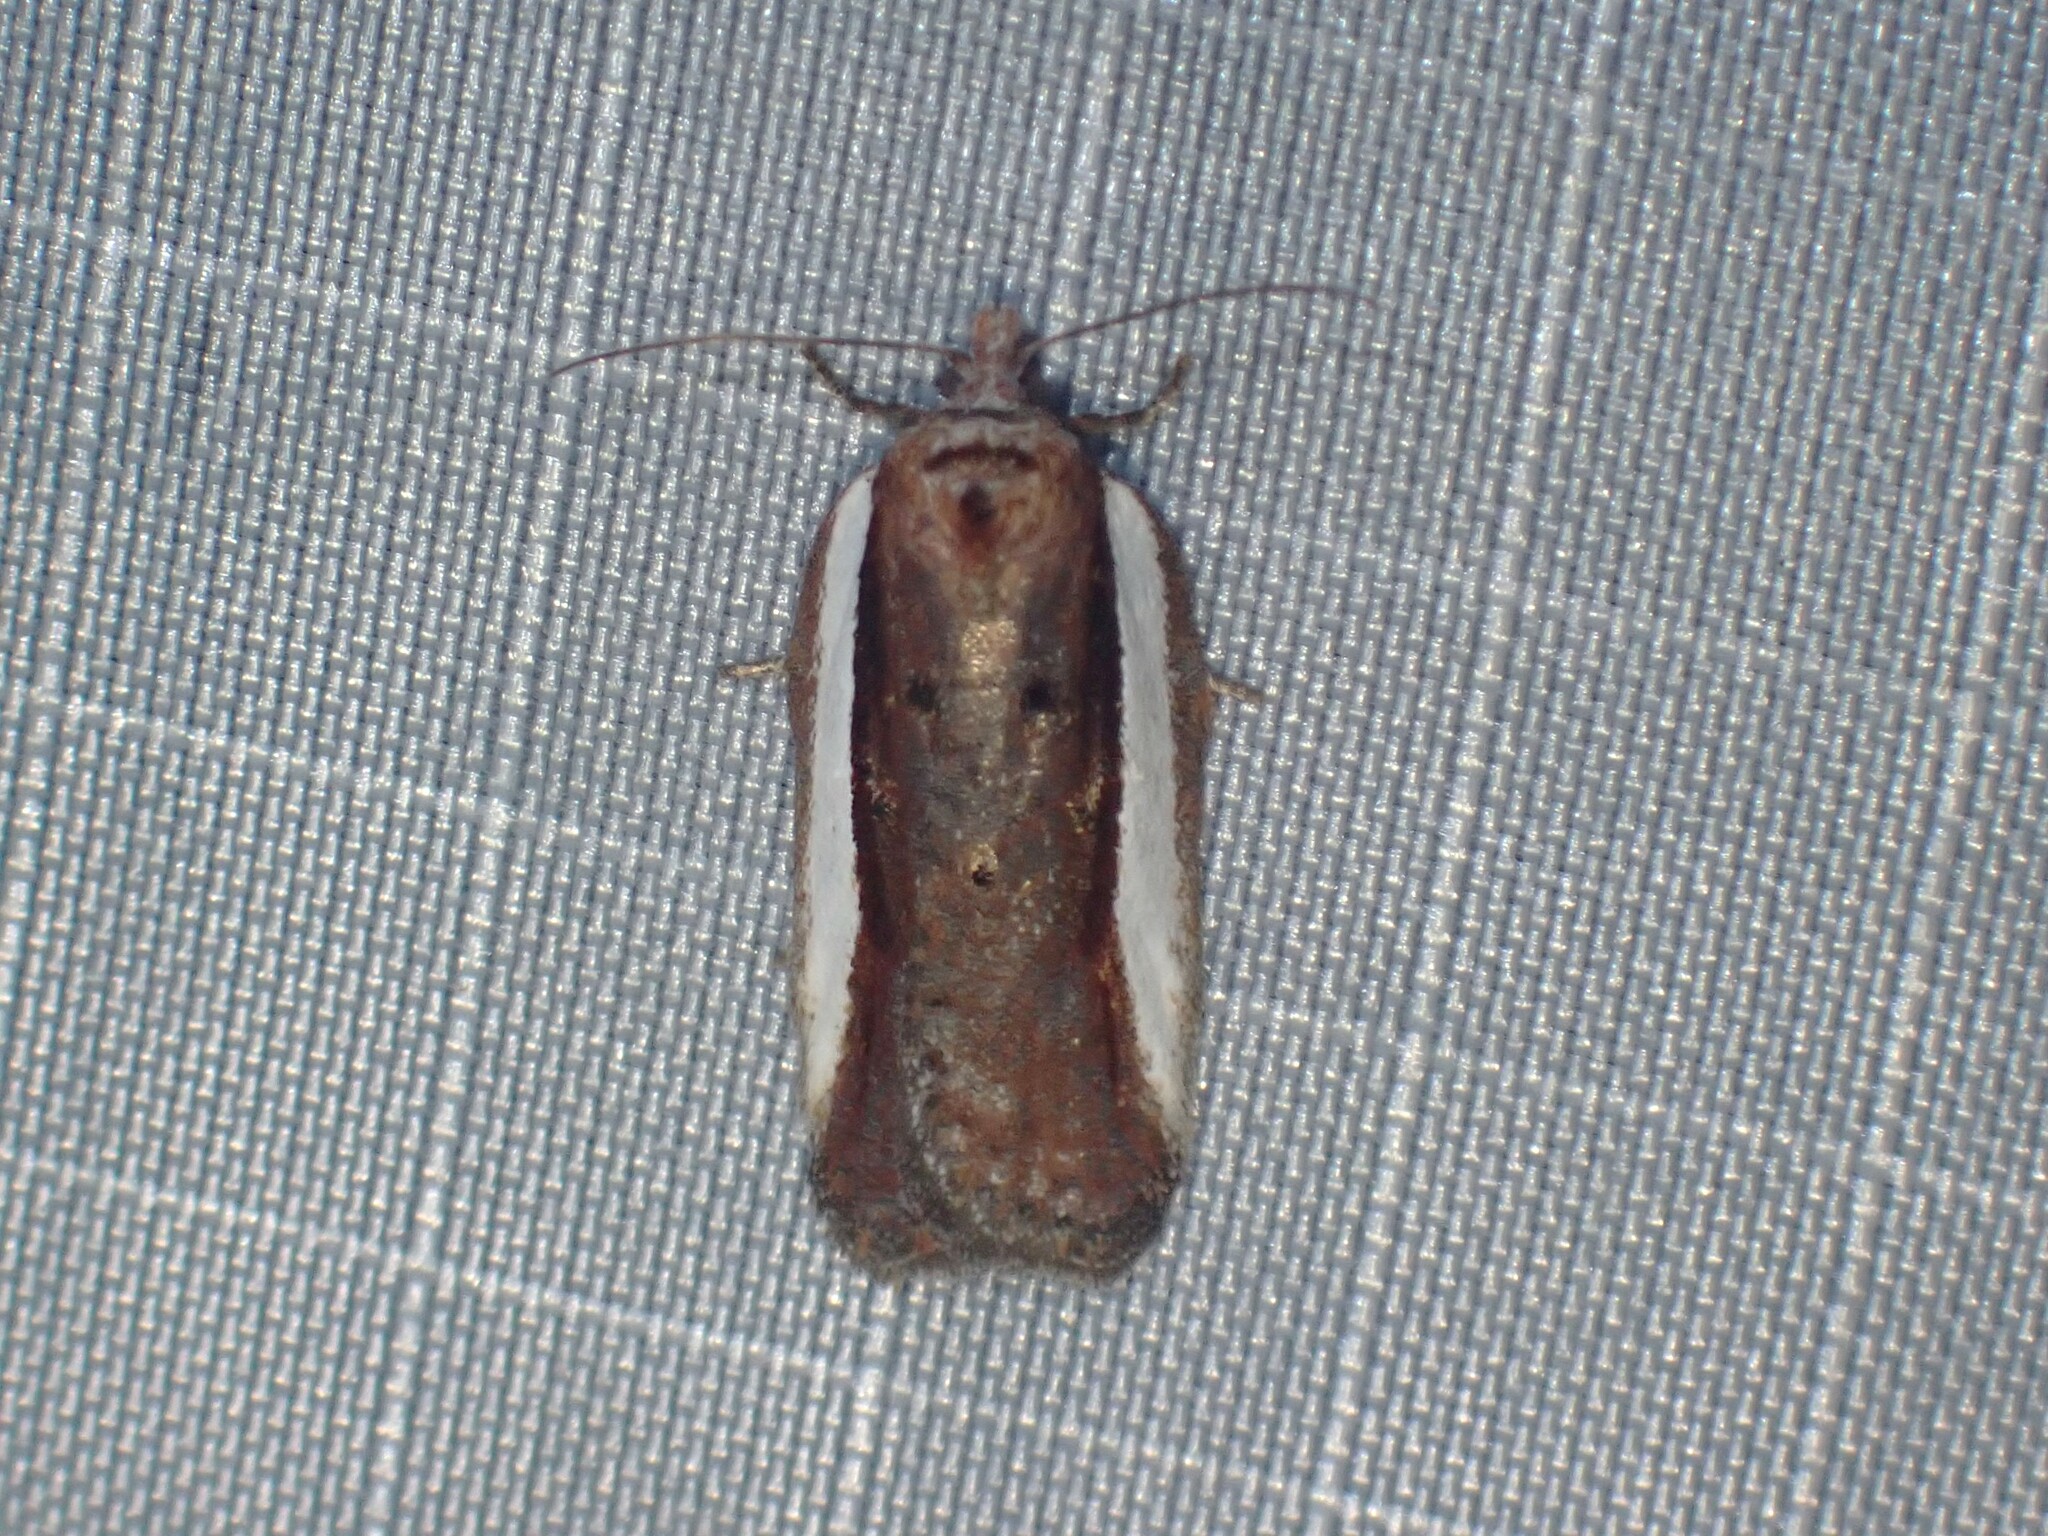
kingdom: Animalia
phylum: Arthropoda
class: Insecta
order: Lepidoptera
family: Tortricidae
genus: Acleris
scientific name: Acleris celiana
